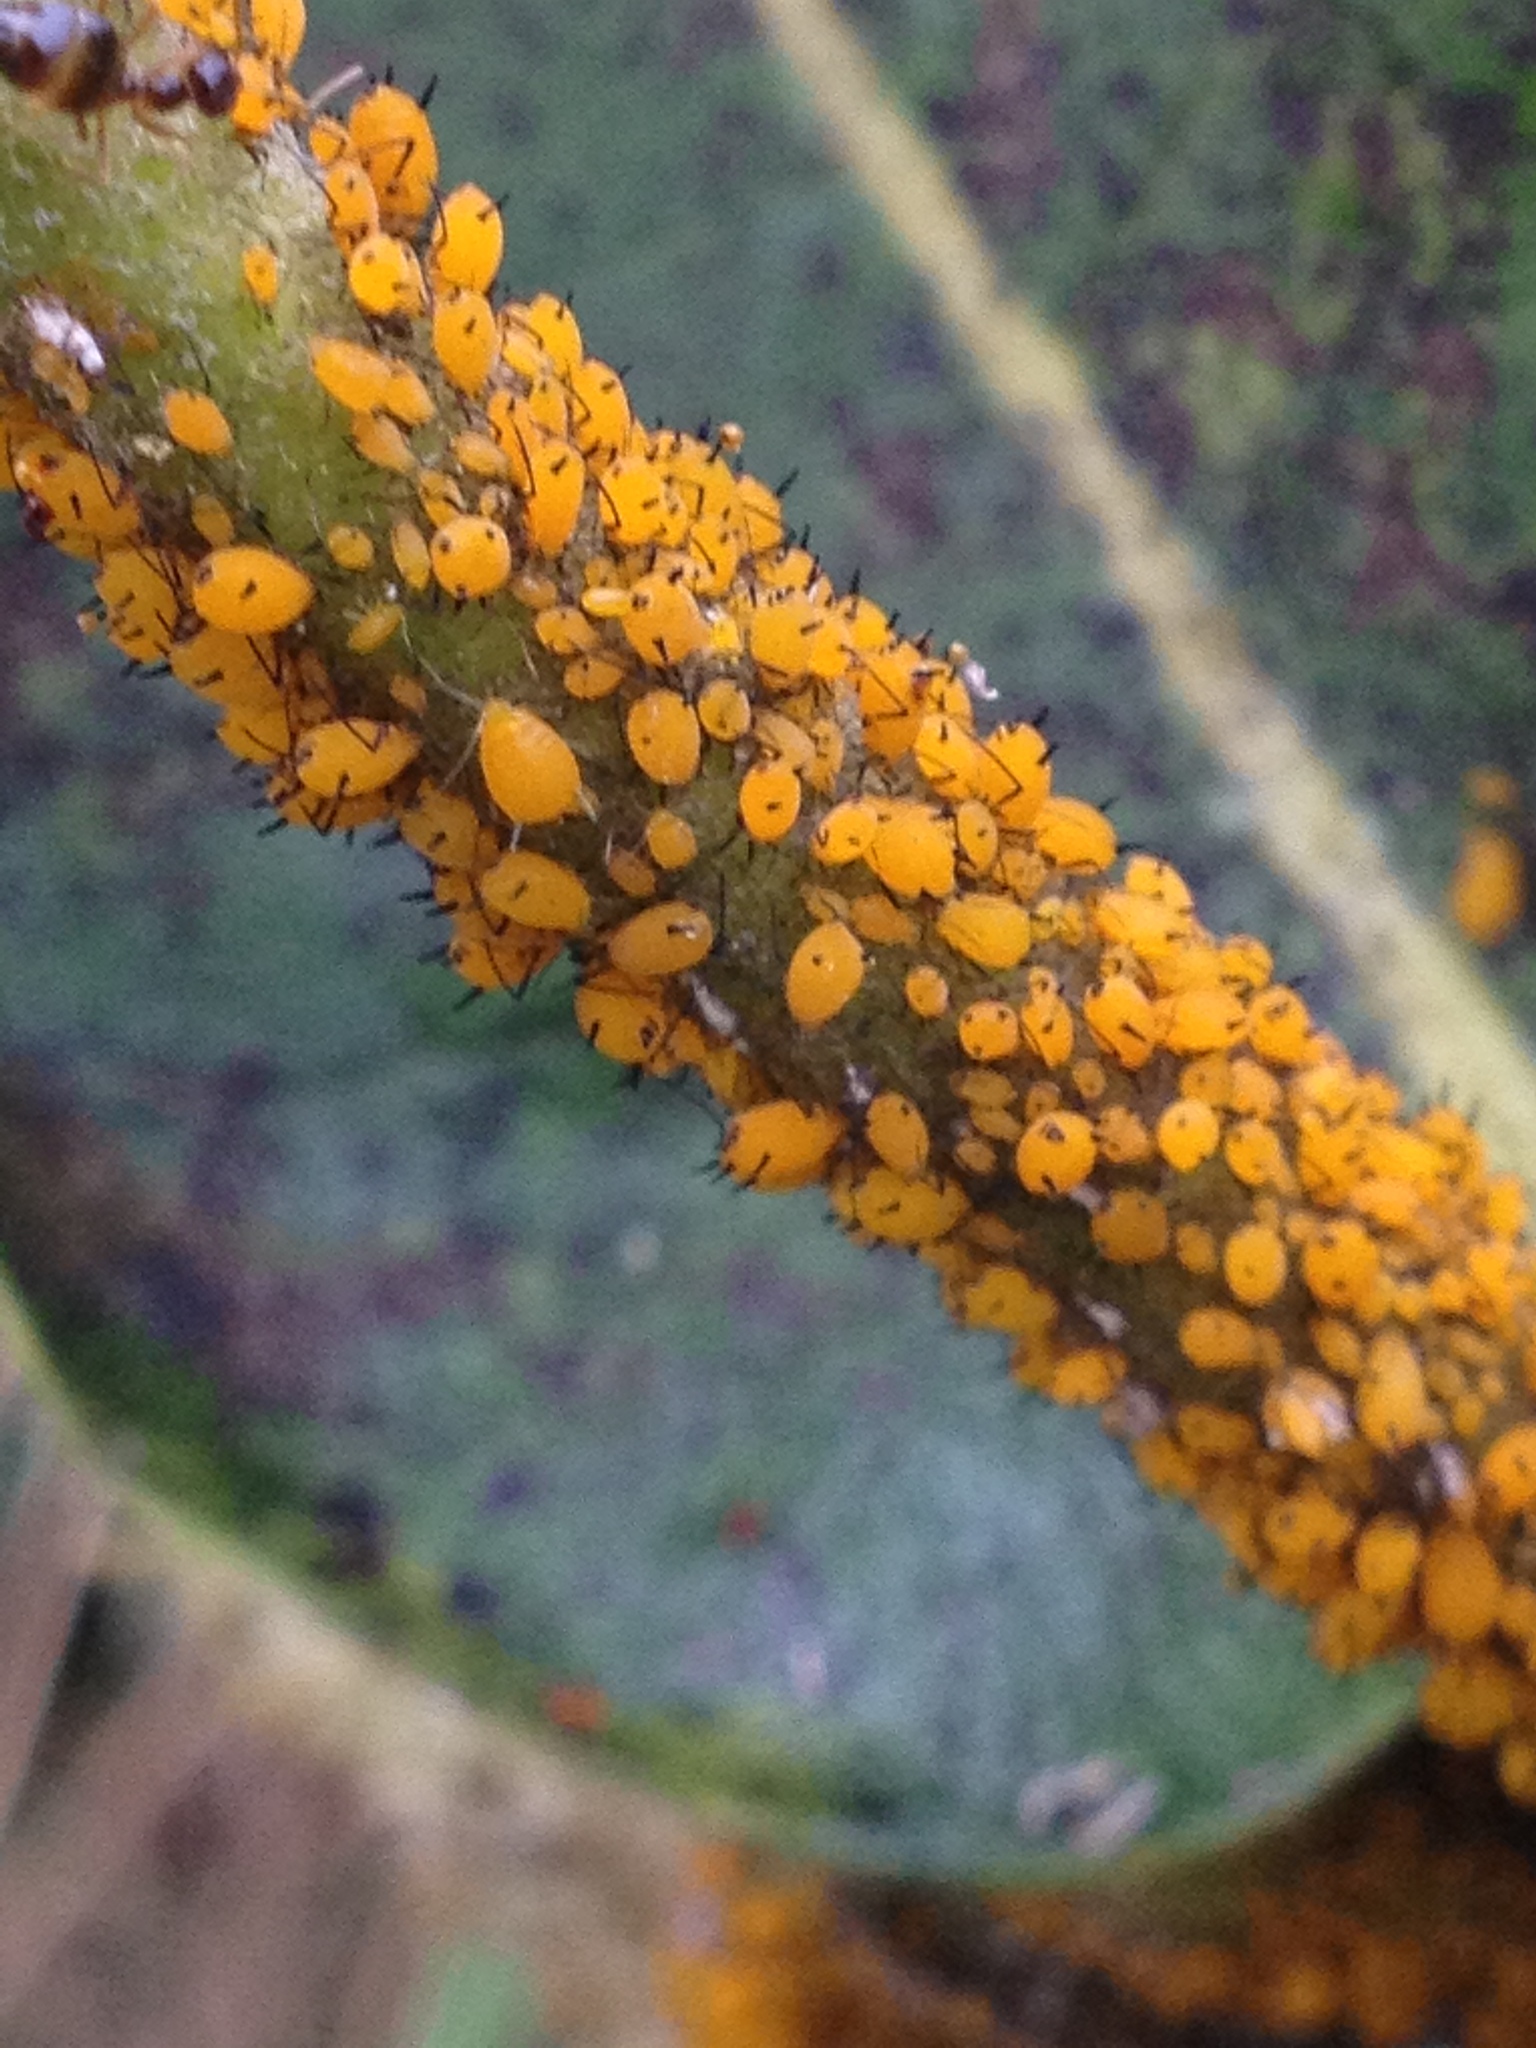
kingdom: Animalia
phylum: Arthropoda
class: Insecta
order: Hemiptera
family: Aphididae
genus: Aphis
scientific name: Aphis nerii
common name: Oleander aphid
